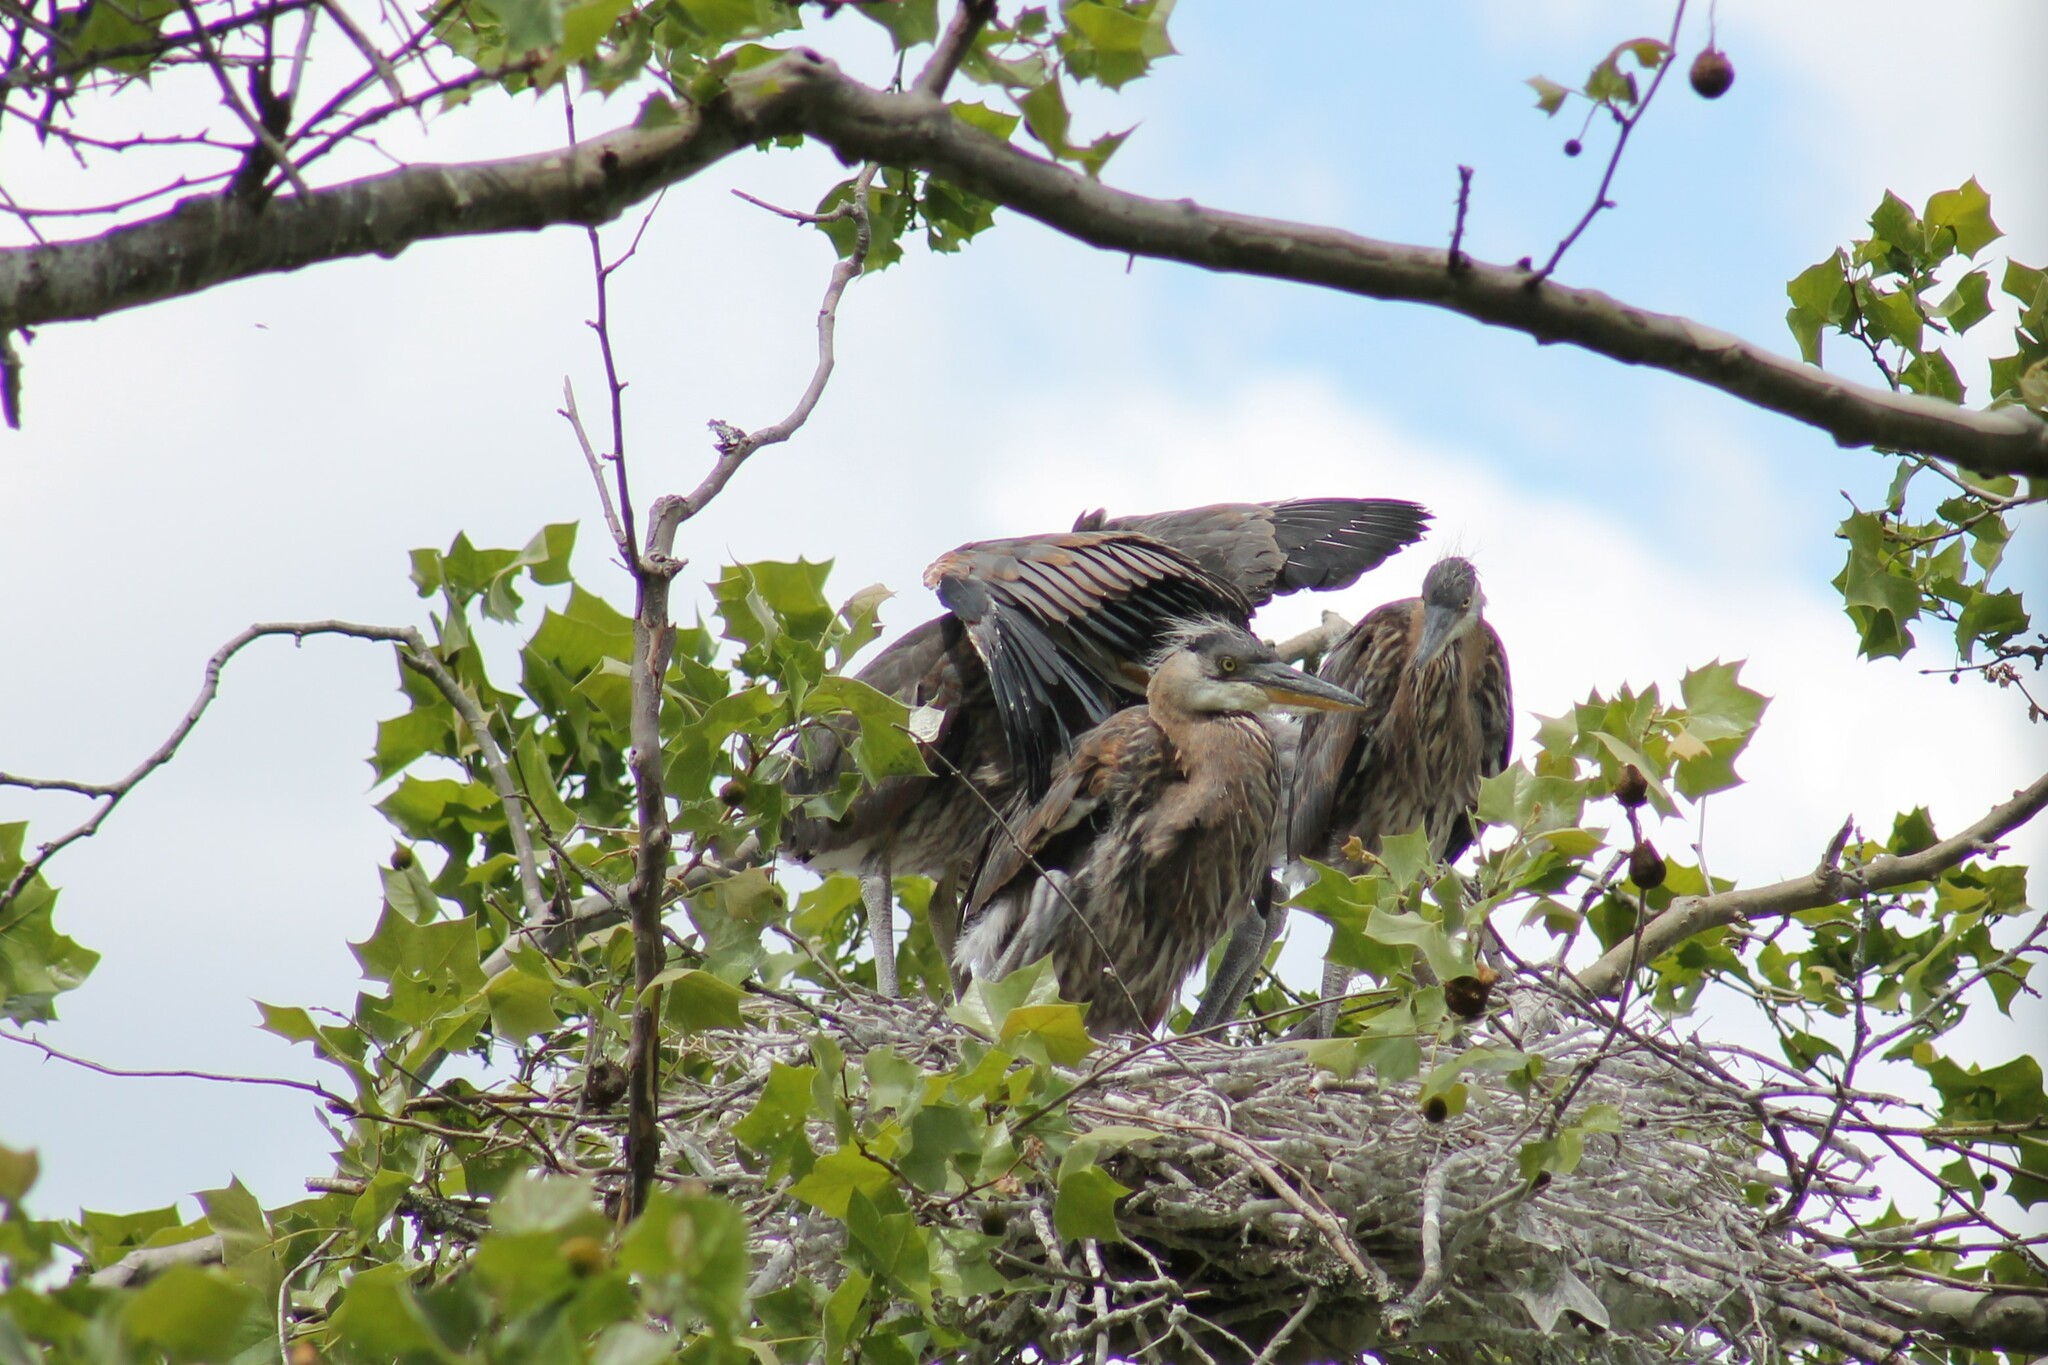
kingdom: Animalia
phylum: Chordata
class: Aves
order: Pelecaniformes
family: Ardeidae
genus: Ardea
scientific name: Ardea herodias
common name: Great blue heron
